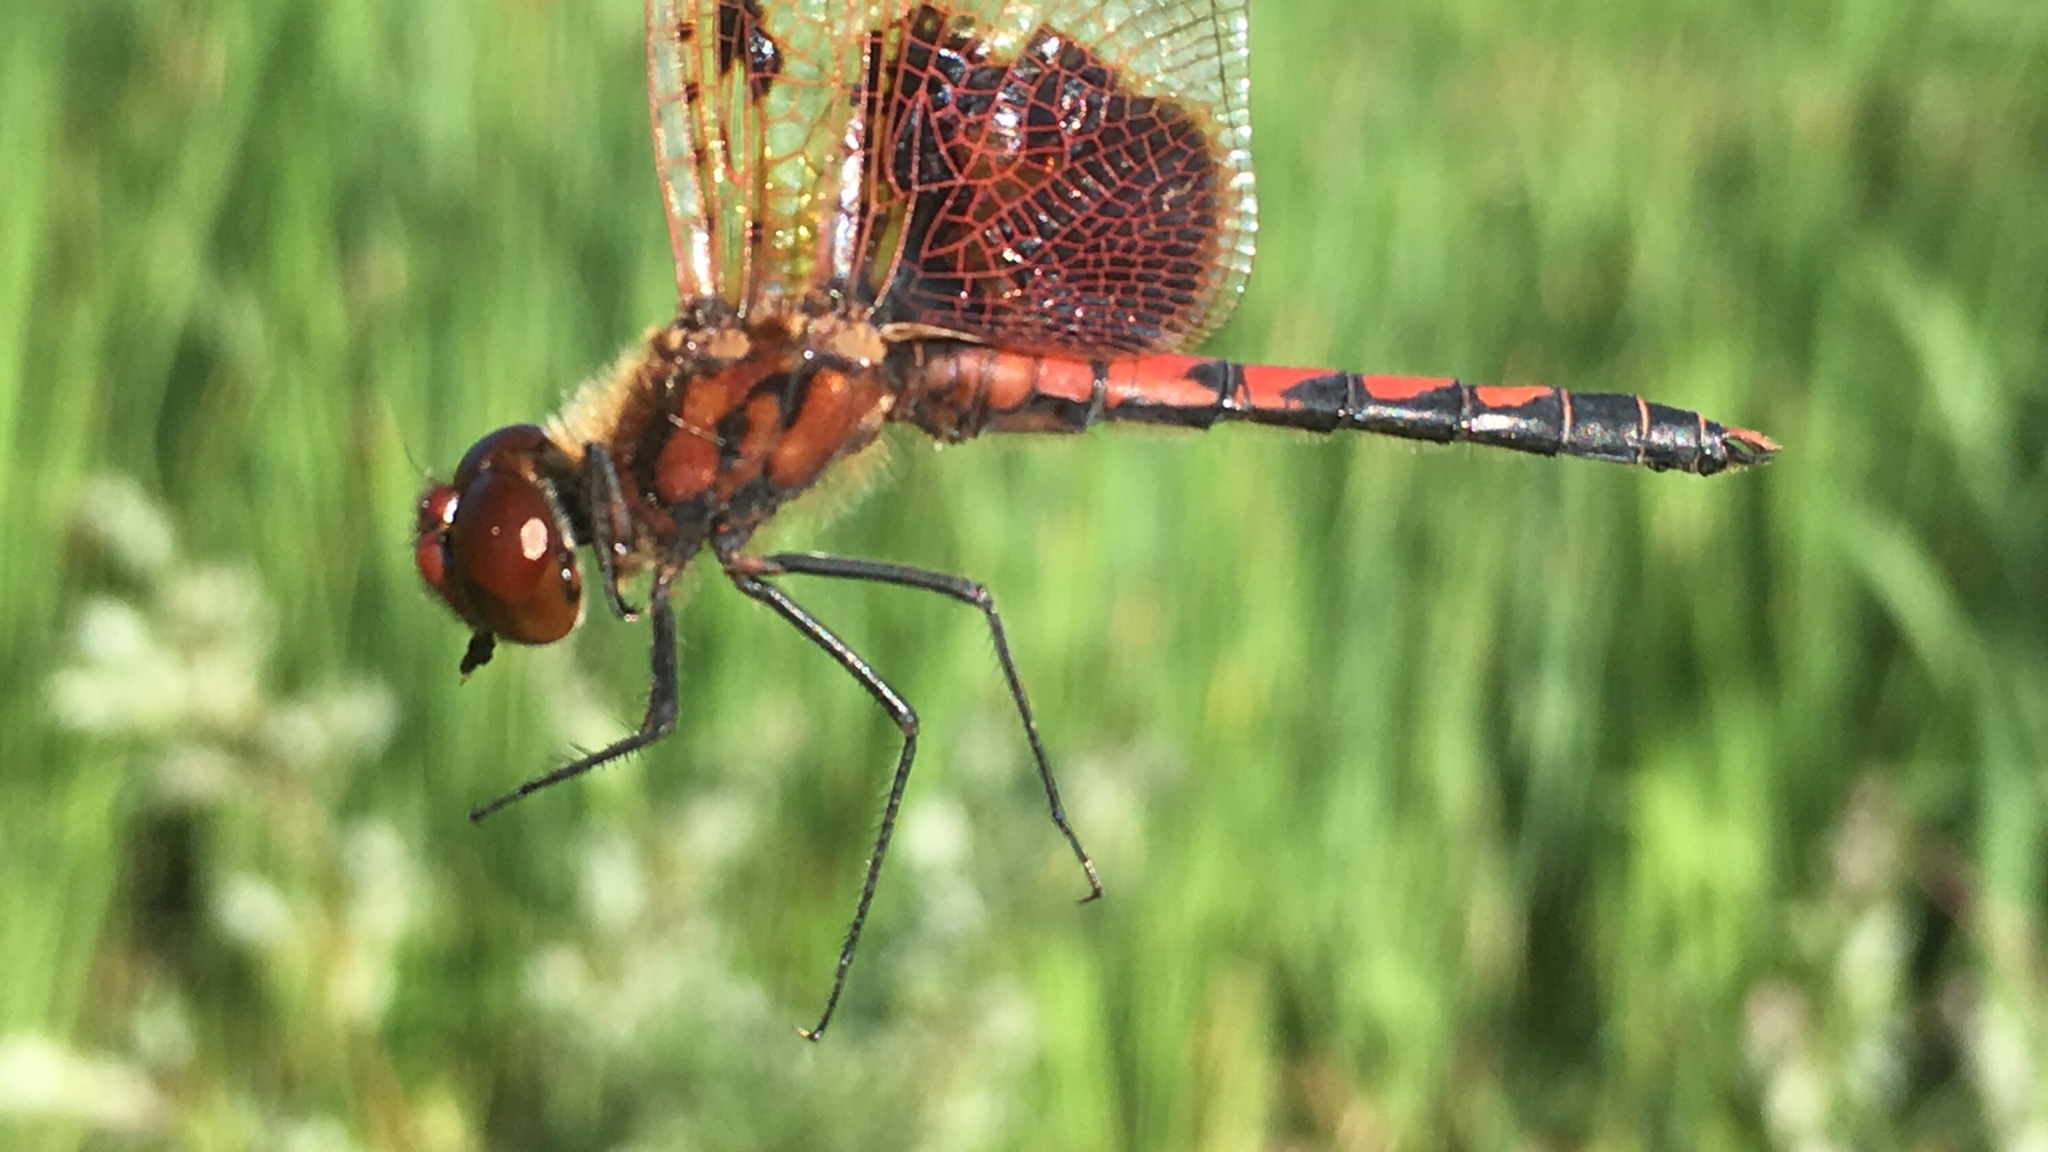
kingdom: Animalia
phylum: Arthropoda
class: Insecta
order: Odonata
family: Libellulidae
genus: Celithemis
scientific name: Celithemis elisa
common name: Calico pennant
